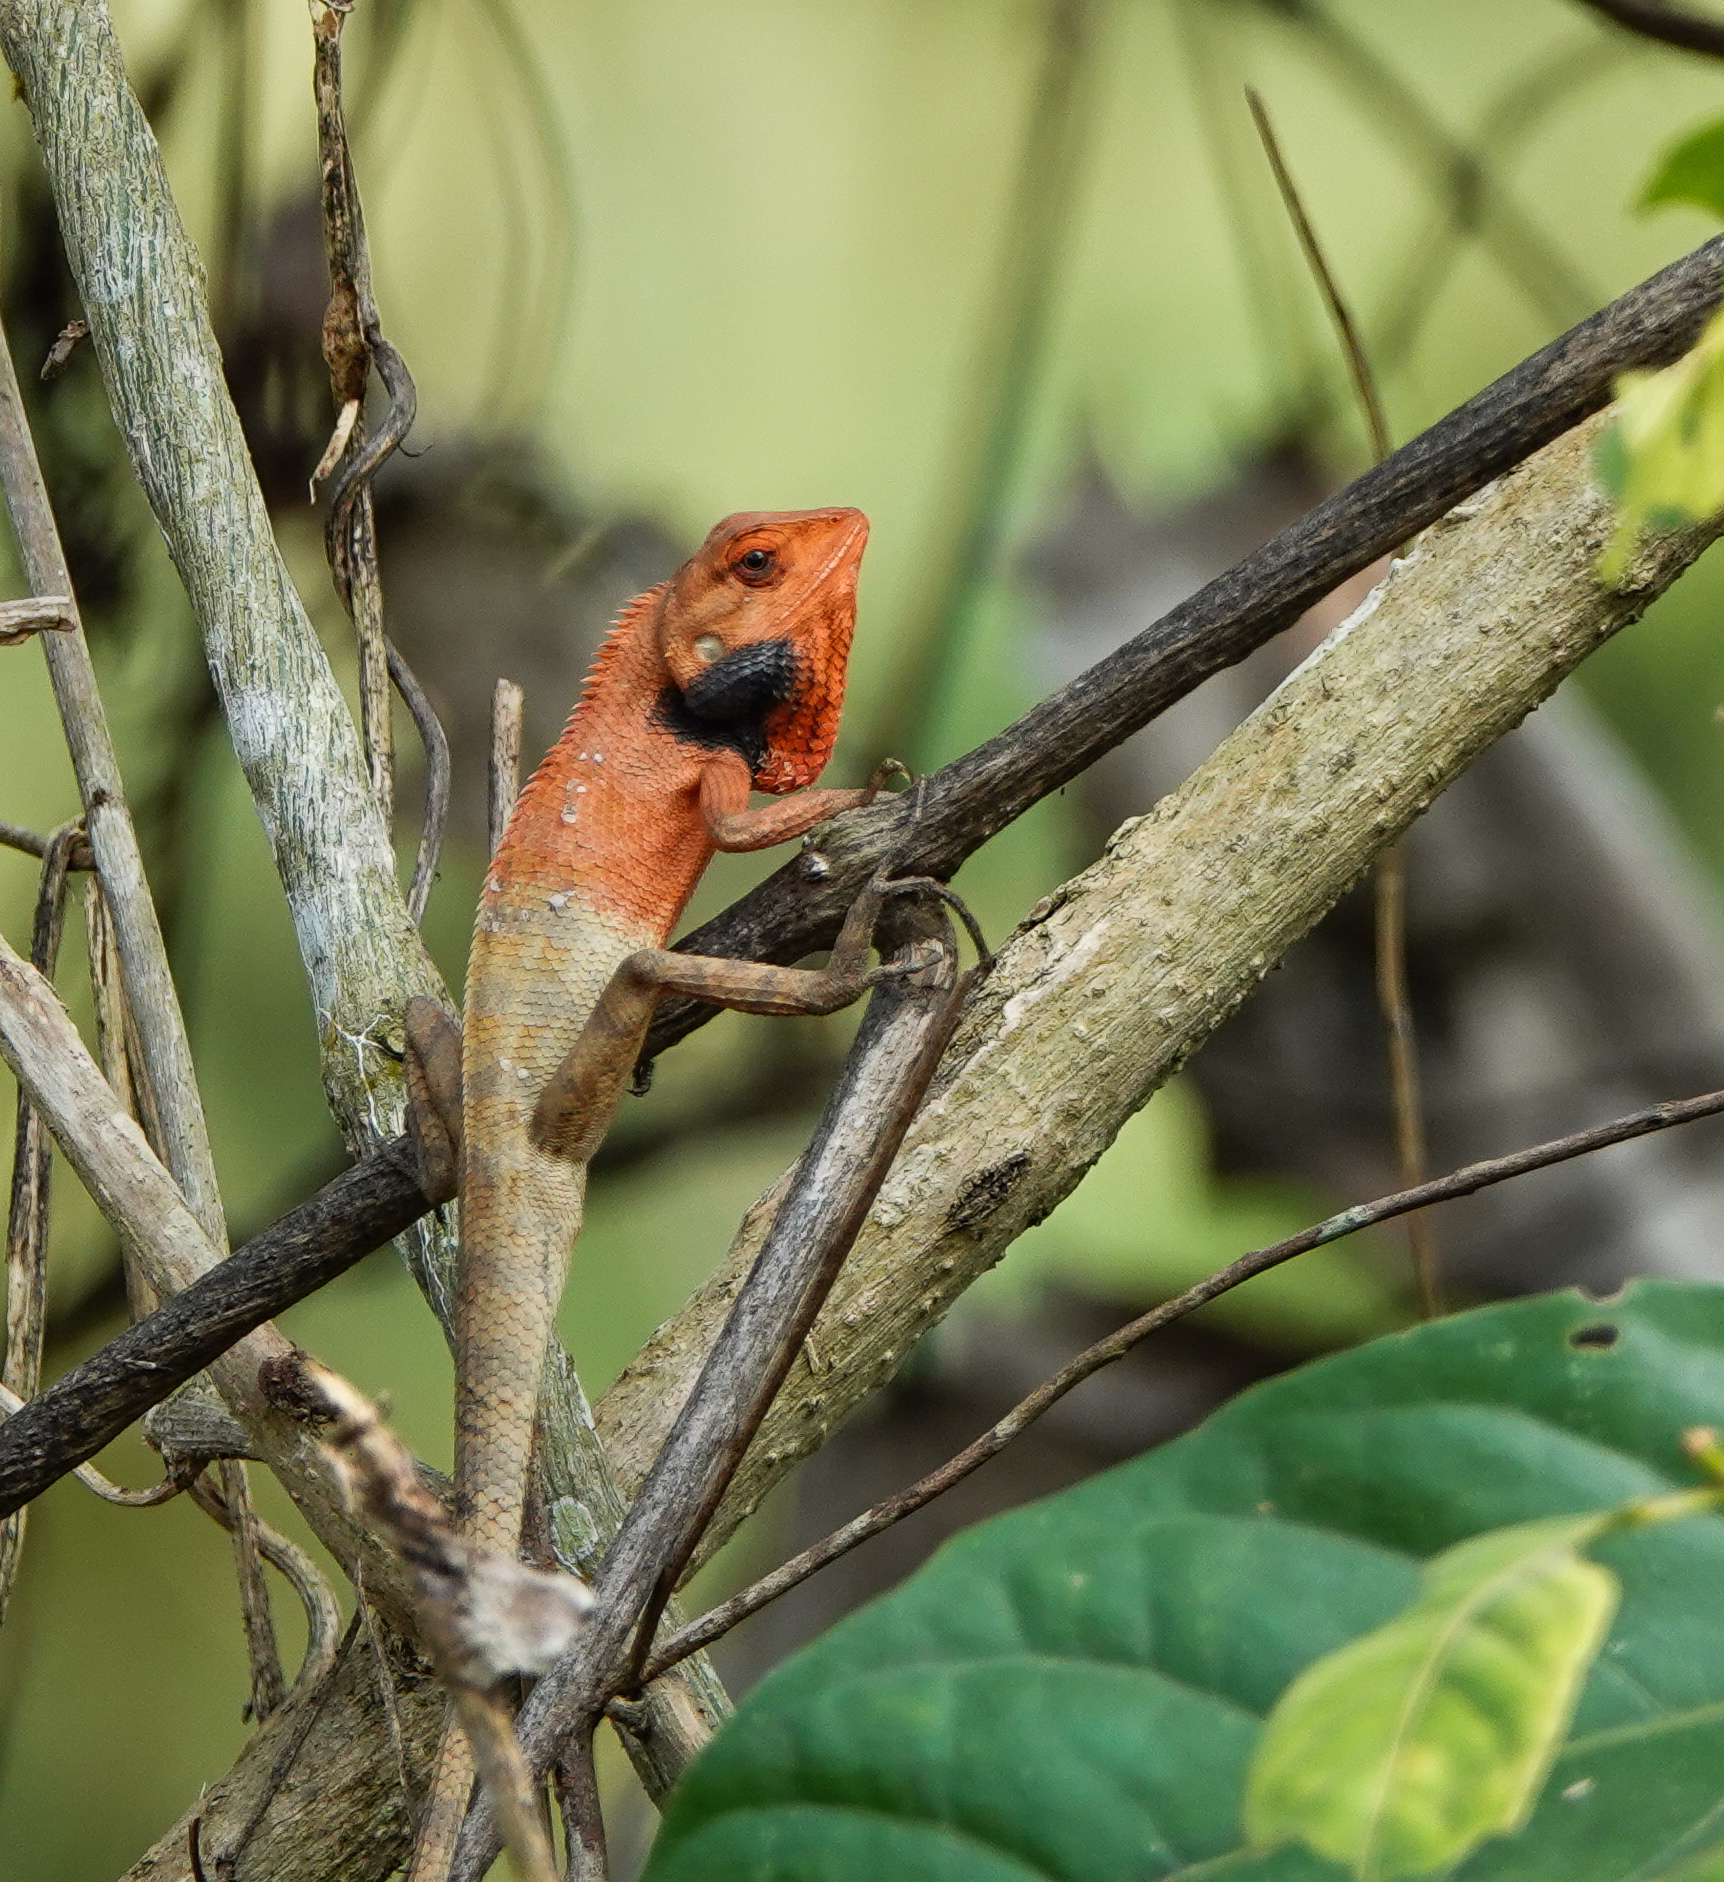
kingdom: Animalia
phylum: Chordata
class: Squamata
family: Agamidae
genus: Calotes
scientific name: Calotes versicolor
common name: Oriental garden lizard
